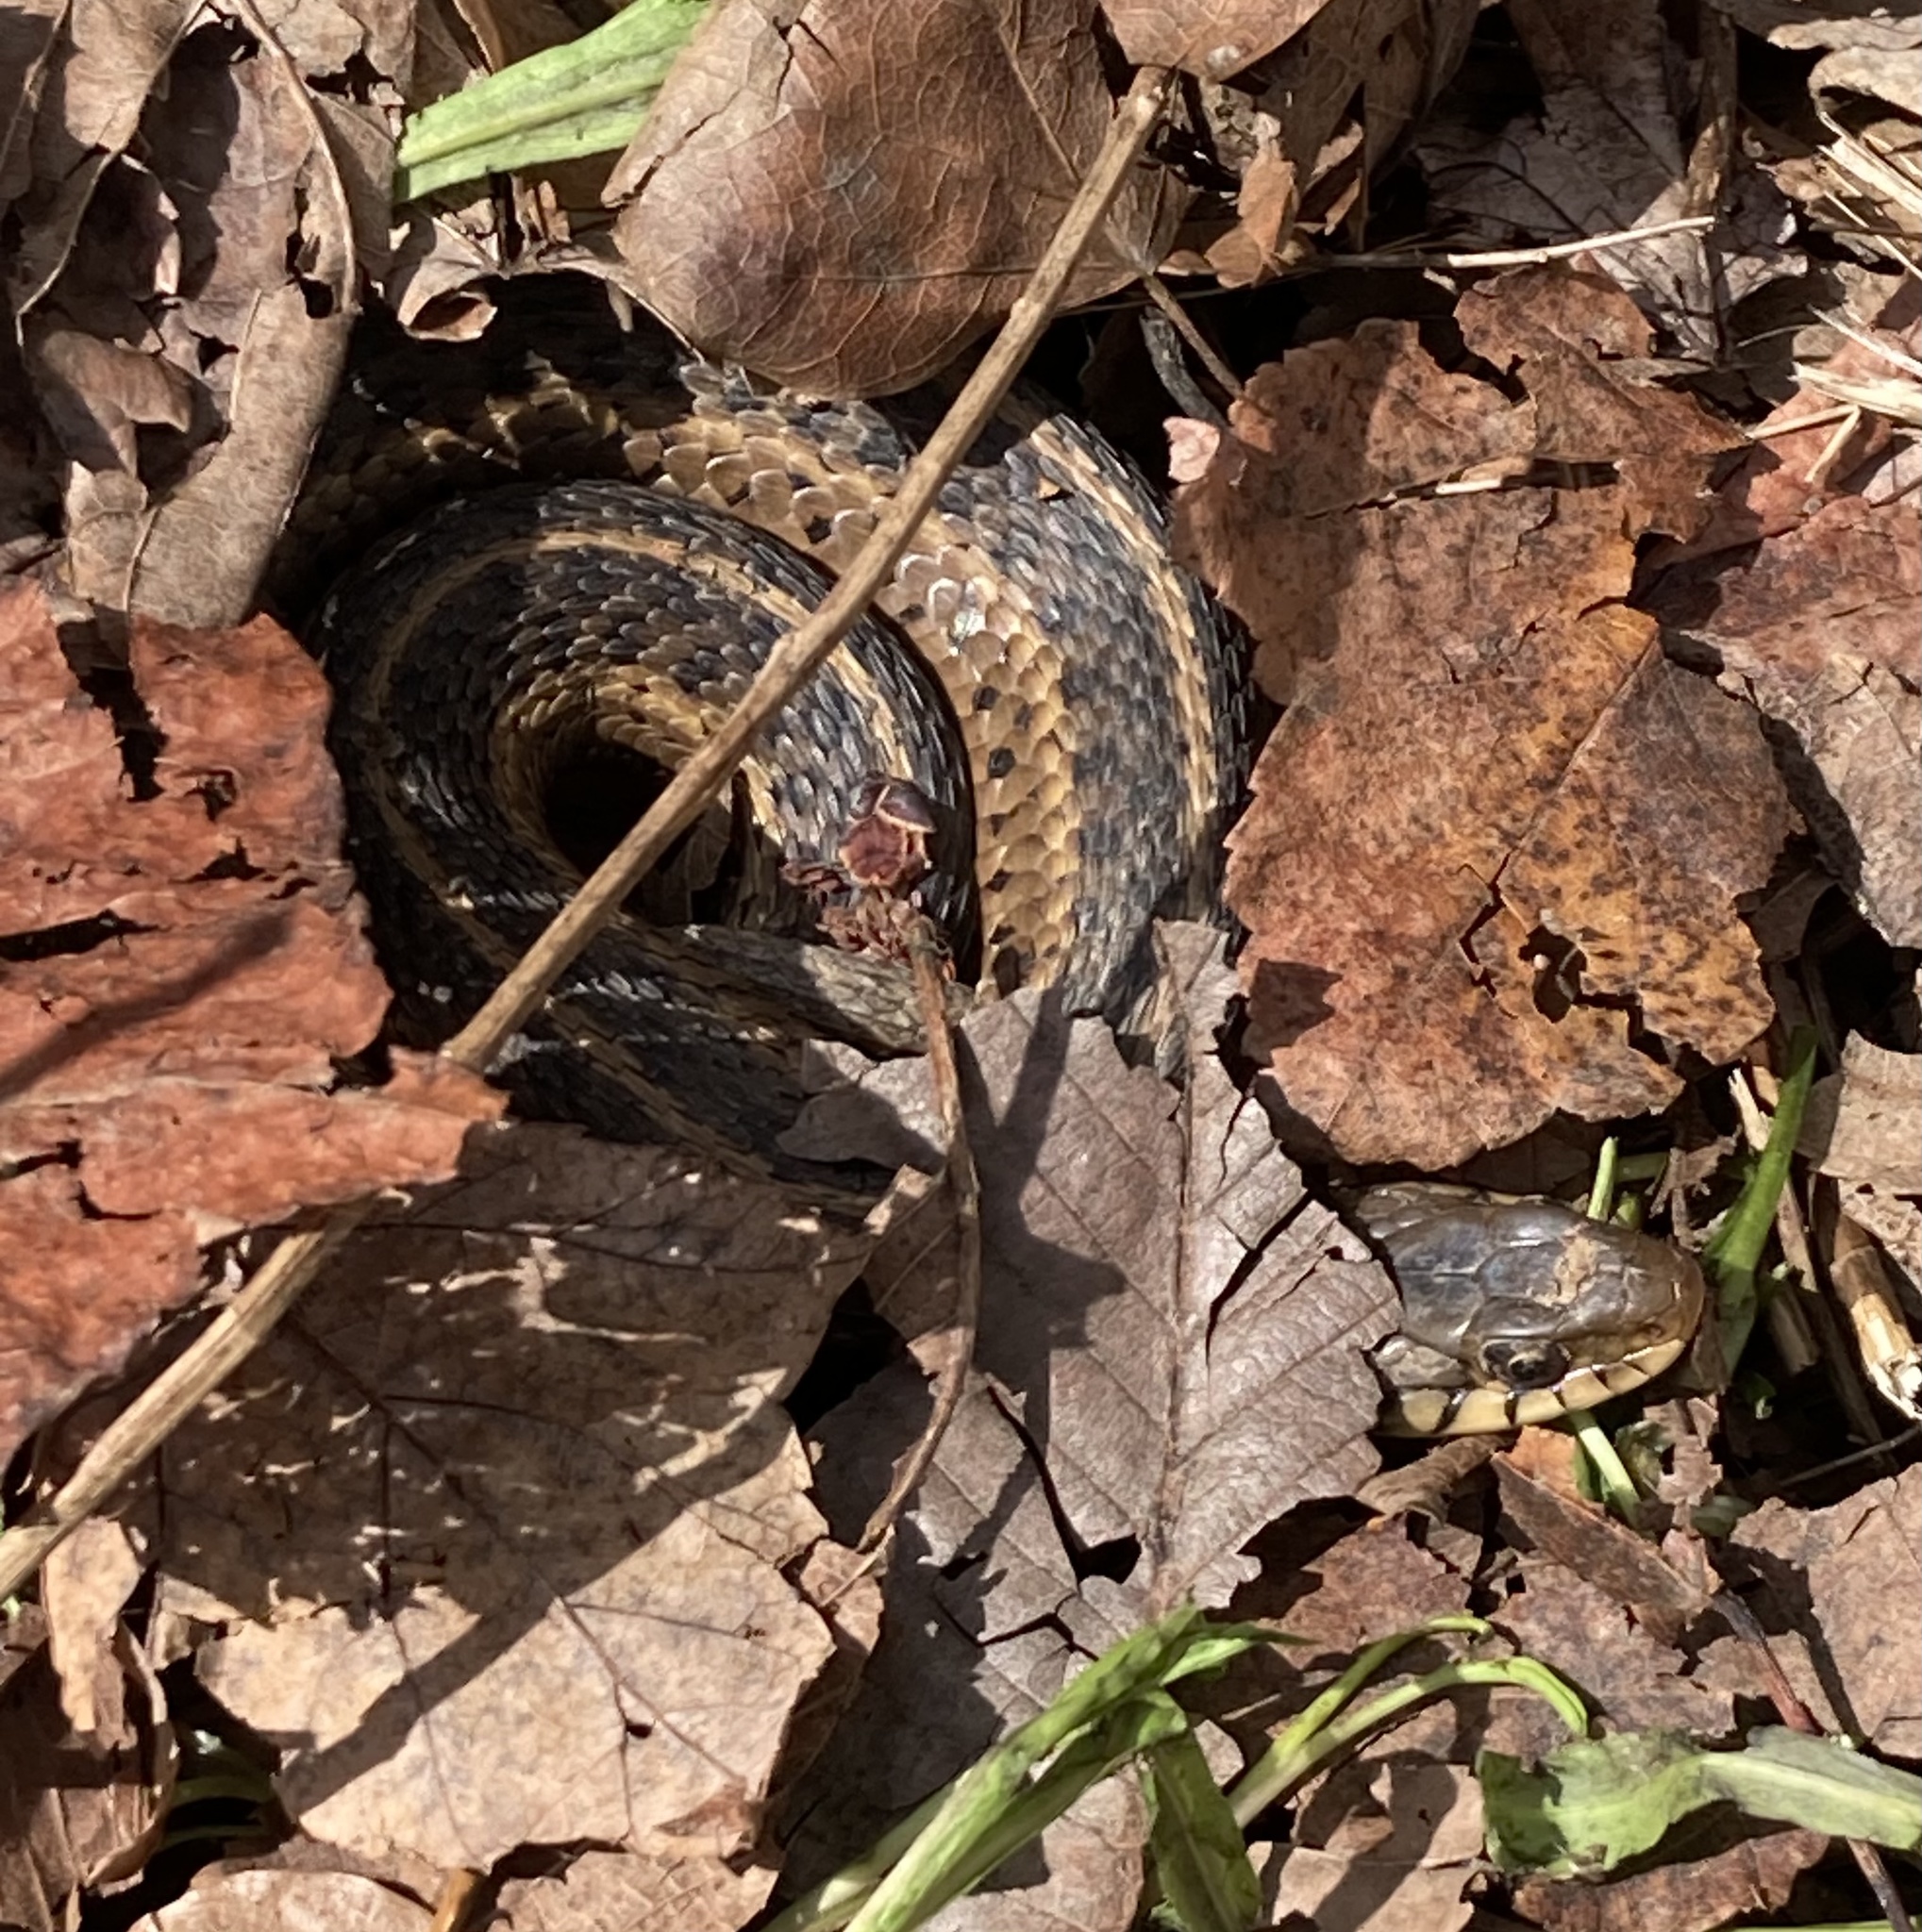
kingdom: Animalia
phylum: Chordata
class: Squamata
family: Colubridae
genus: Thamnophis
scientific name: Thamnophis sirtalis
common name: Common garter snake
